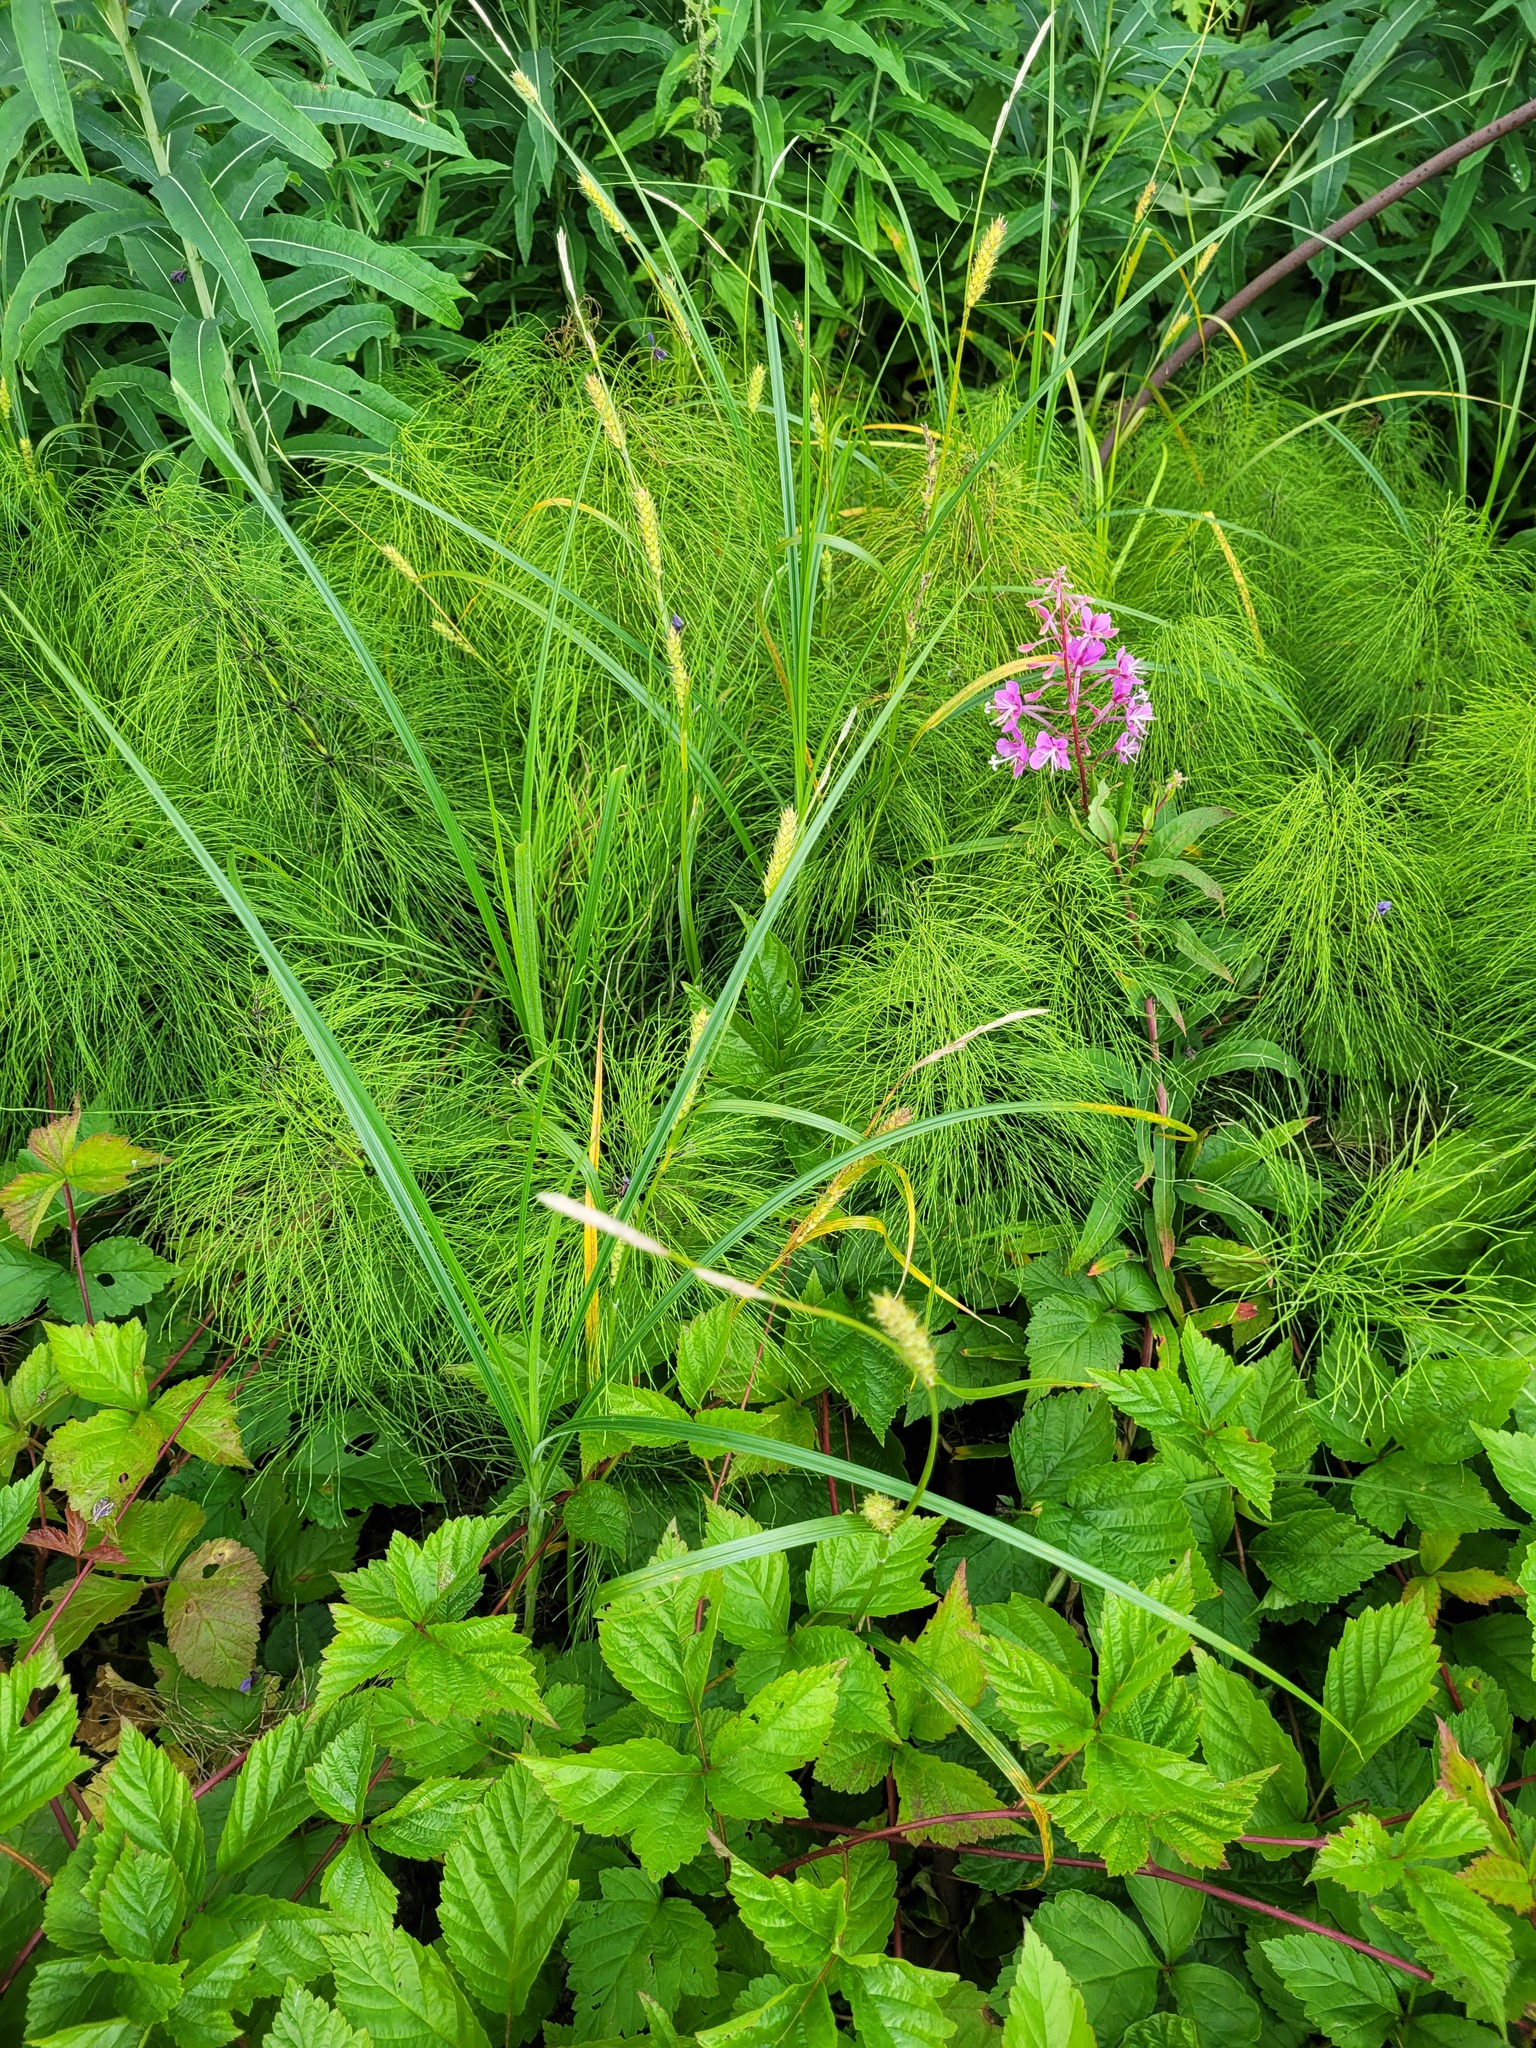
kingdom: Plantae
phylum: Tracheophyta
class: Liliopsida
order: Poales
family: Cyperaceae
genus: Carex
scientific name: Carex hirta
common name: Hairy sedge
